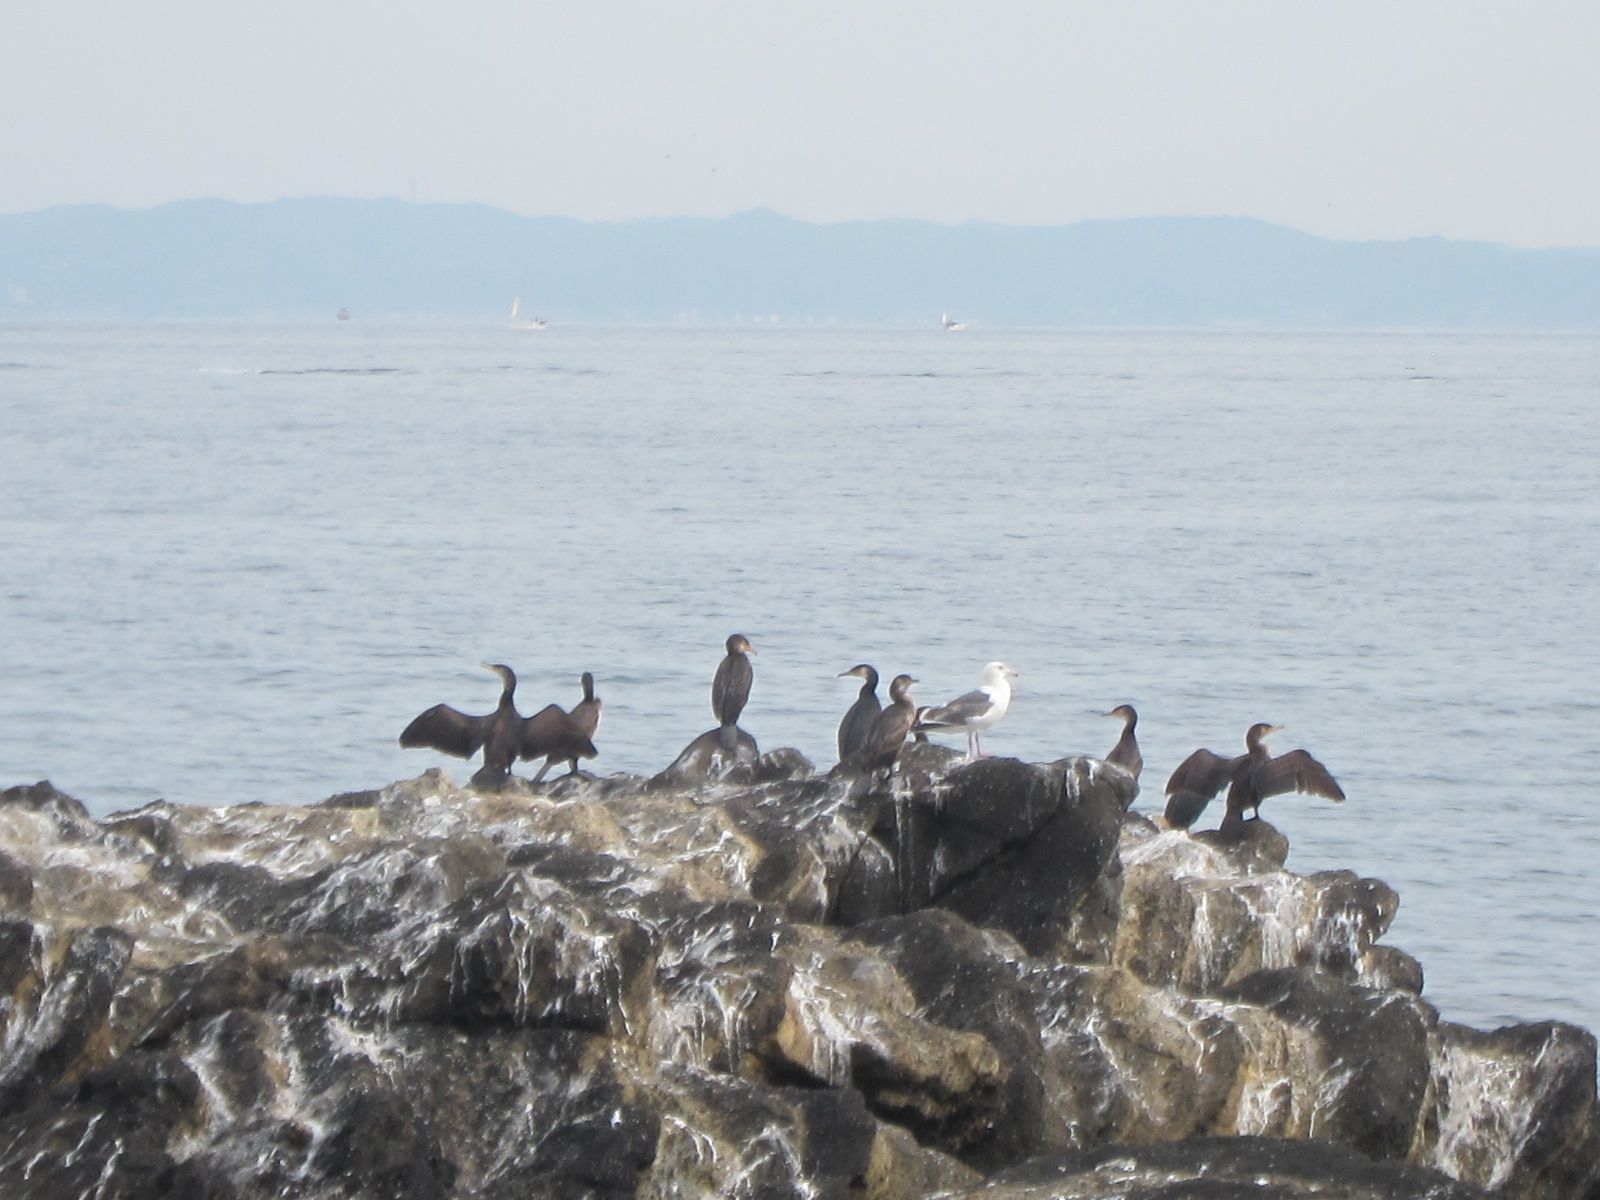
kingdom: Animalia
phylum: Chordata
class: Aves
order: Suliformes
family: Phalacrocoracidae
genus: Phalacrocorax
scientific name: Phalacrocorax capillatus
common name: Japanese cormorant
